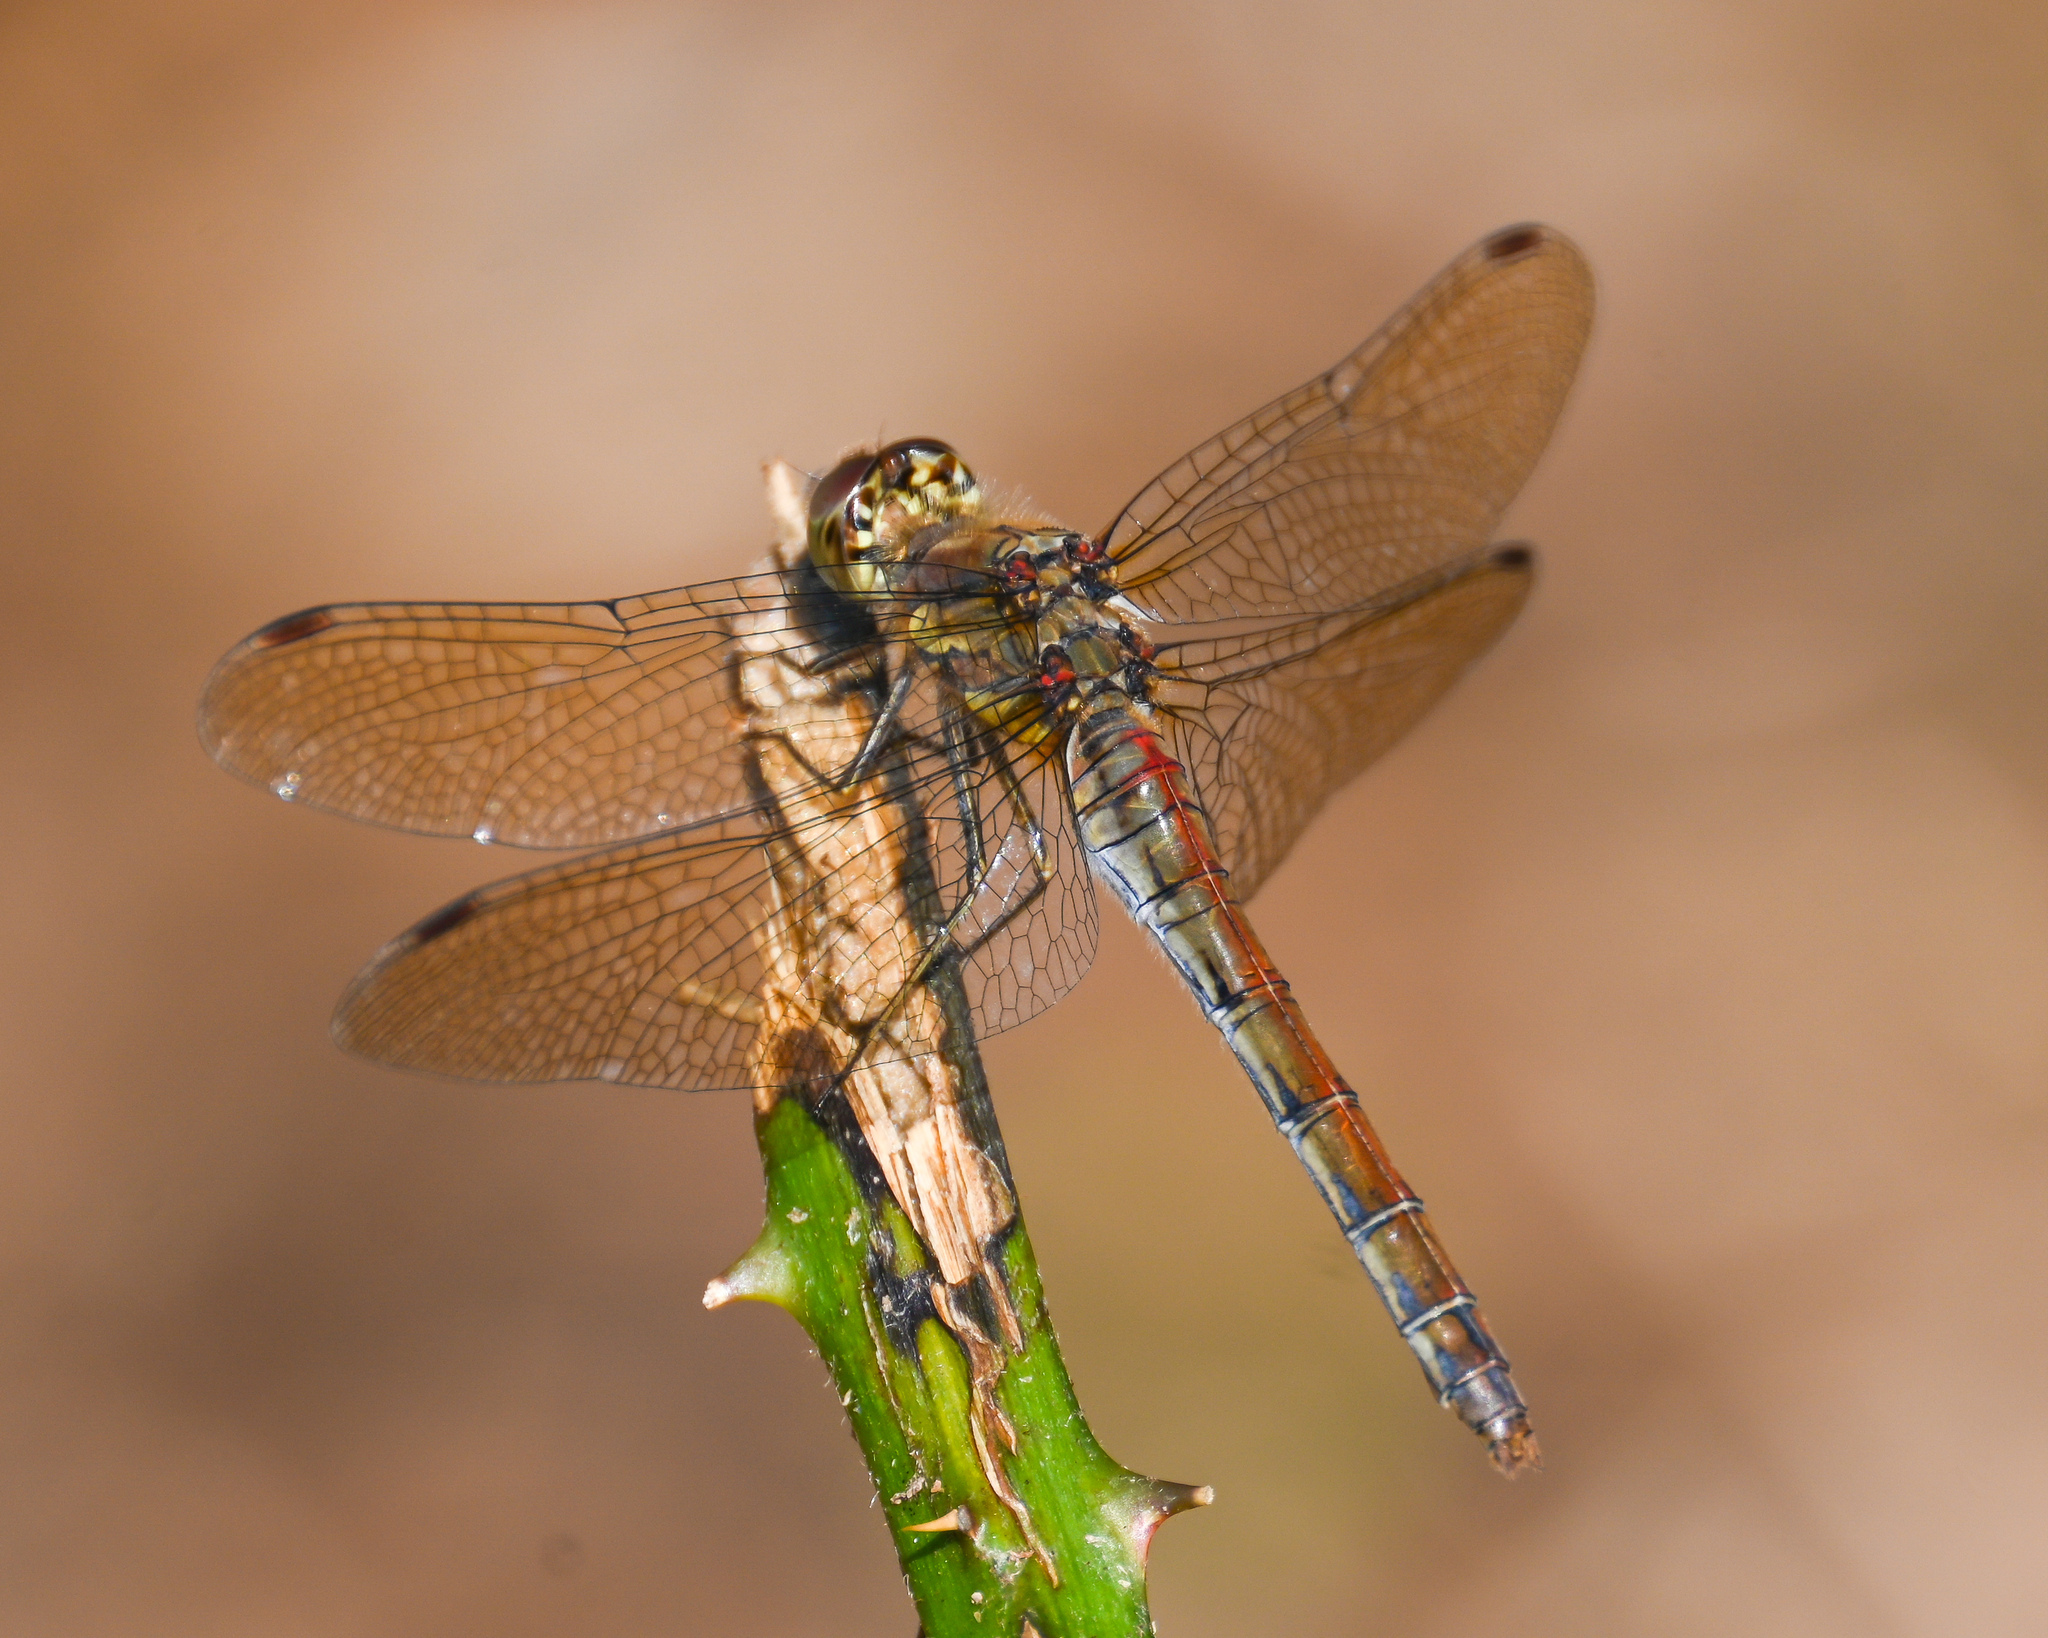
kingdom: Animalia
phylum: Arthropoda
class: Insecta
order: Odonata
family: Libellulidae
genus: Sympetrum
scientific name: Sympetrum striolatum
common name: Common darter
